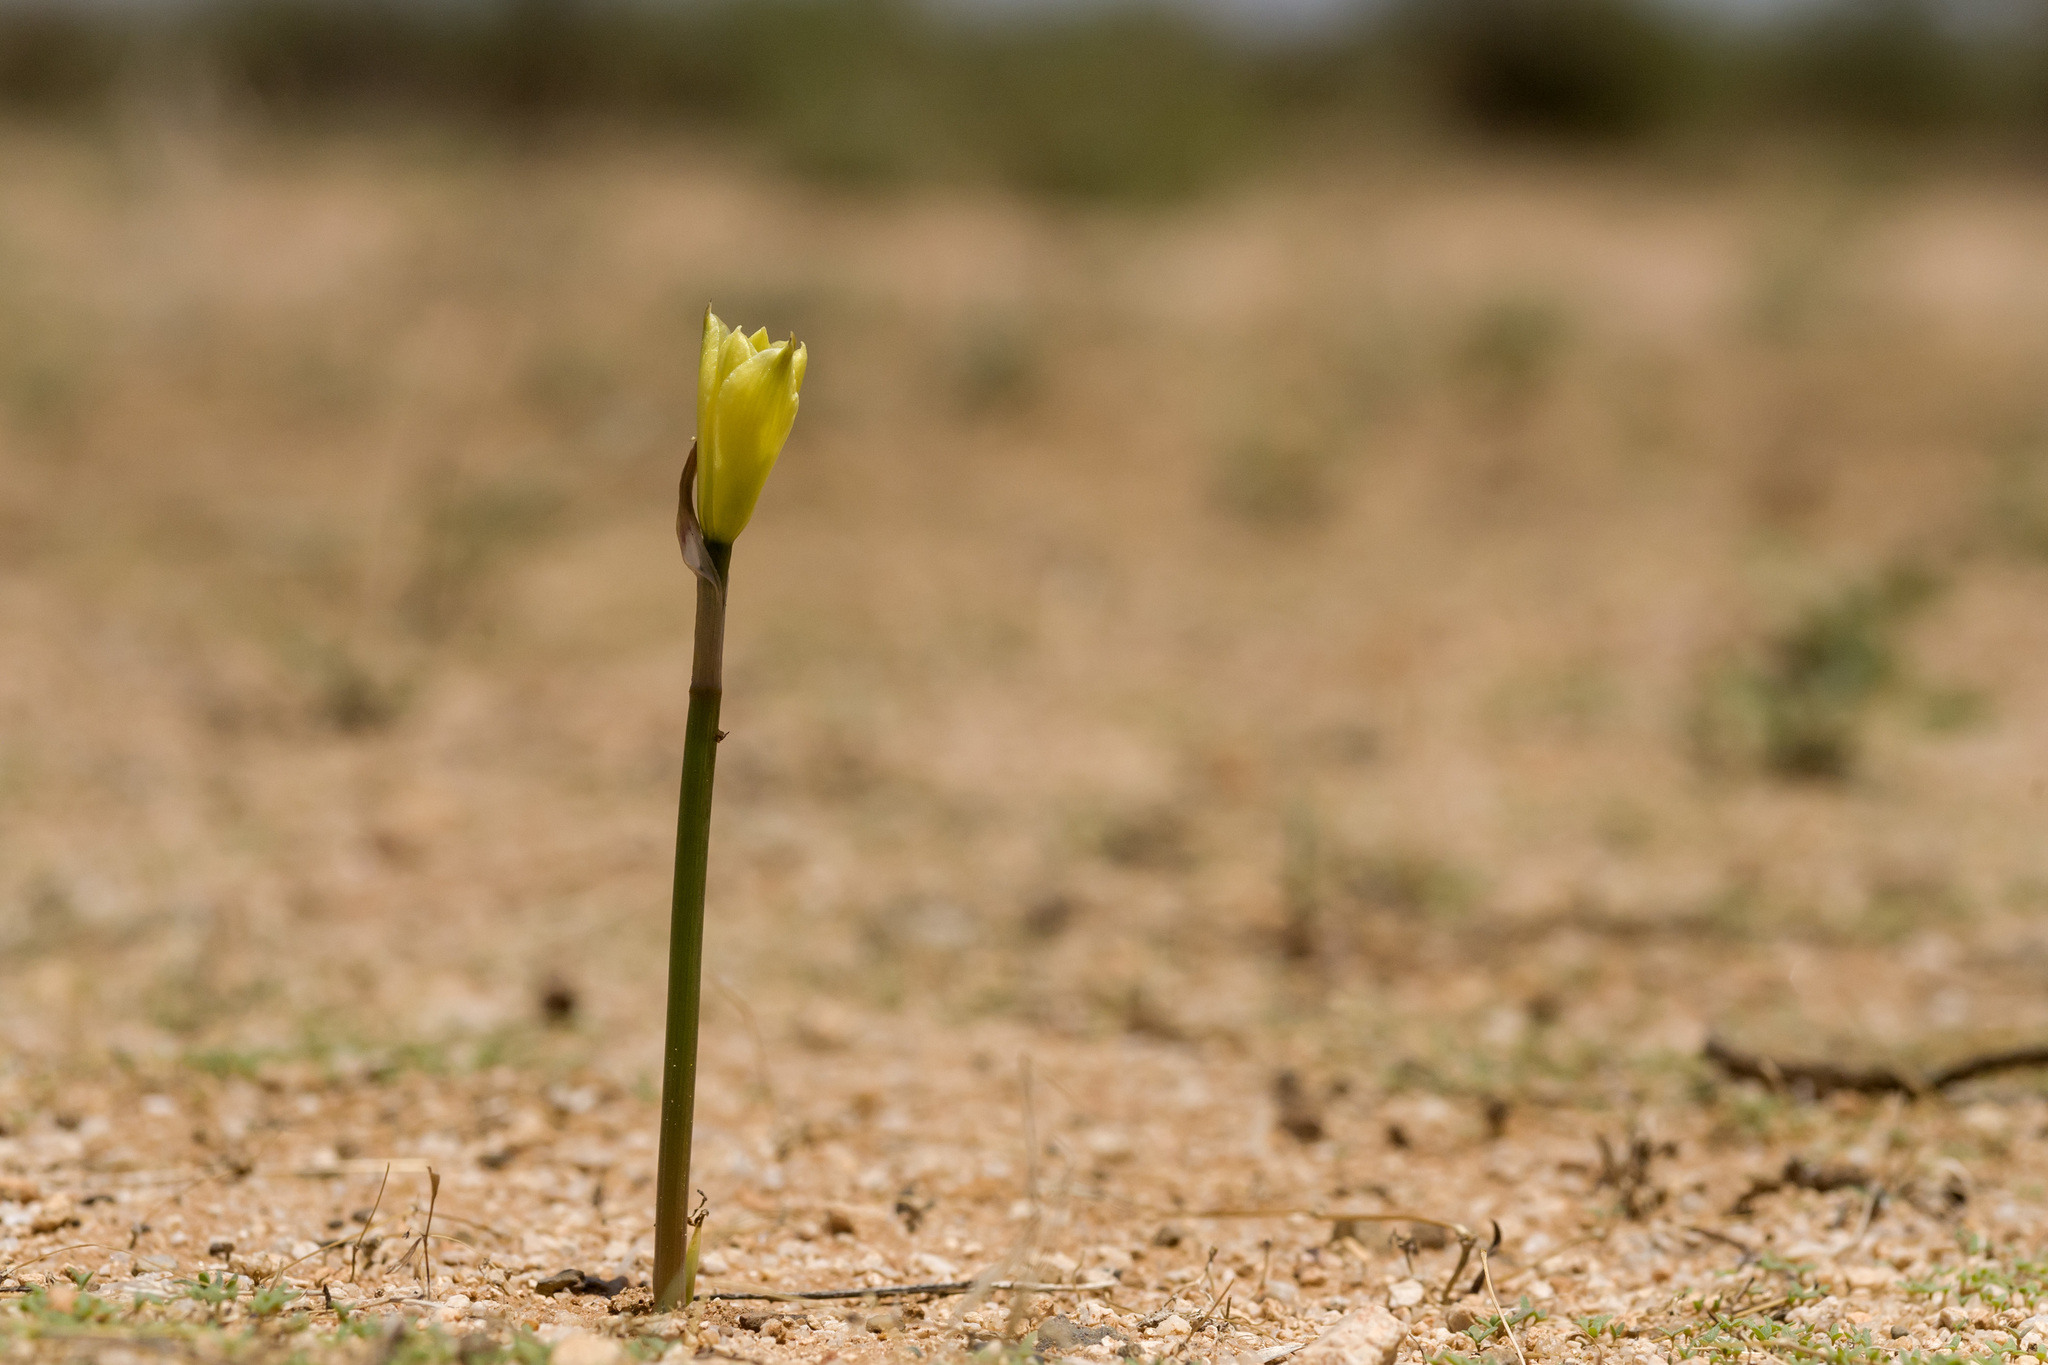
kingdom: Plantae
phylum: Tracheophyta
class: Liliopsida
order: Asparagales
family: Amaryllidaceae
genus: Zephyranthes
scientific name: Zephyranthes longifolia
